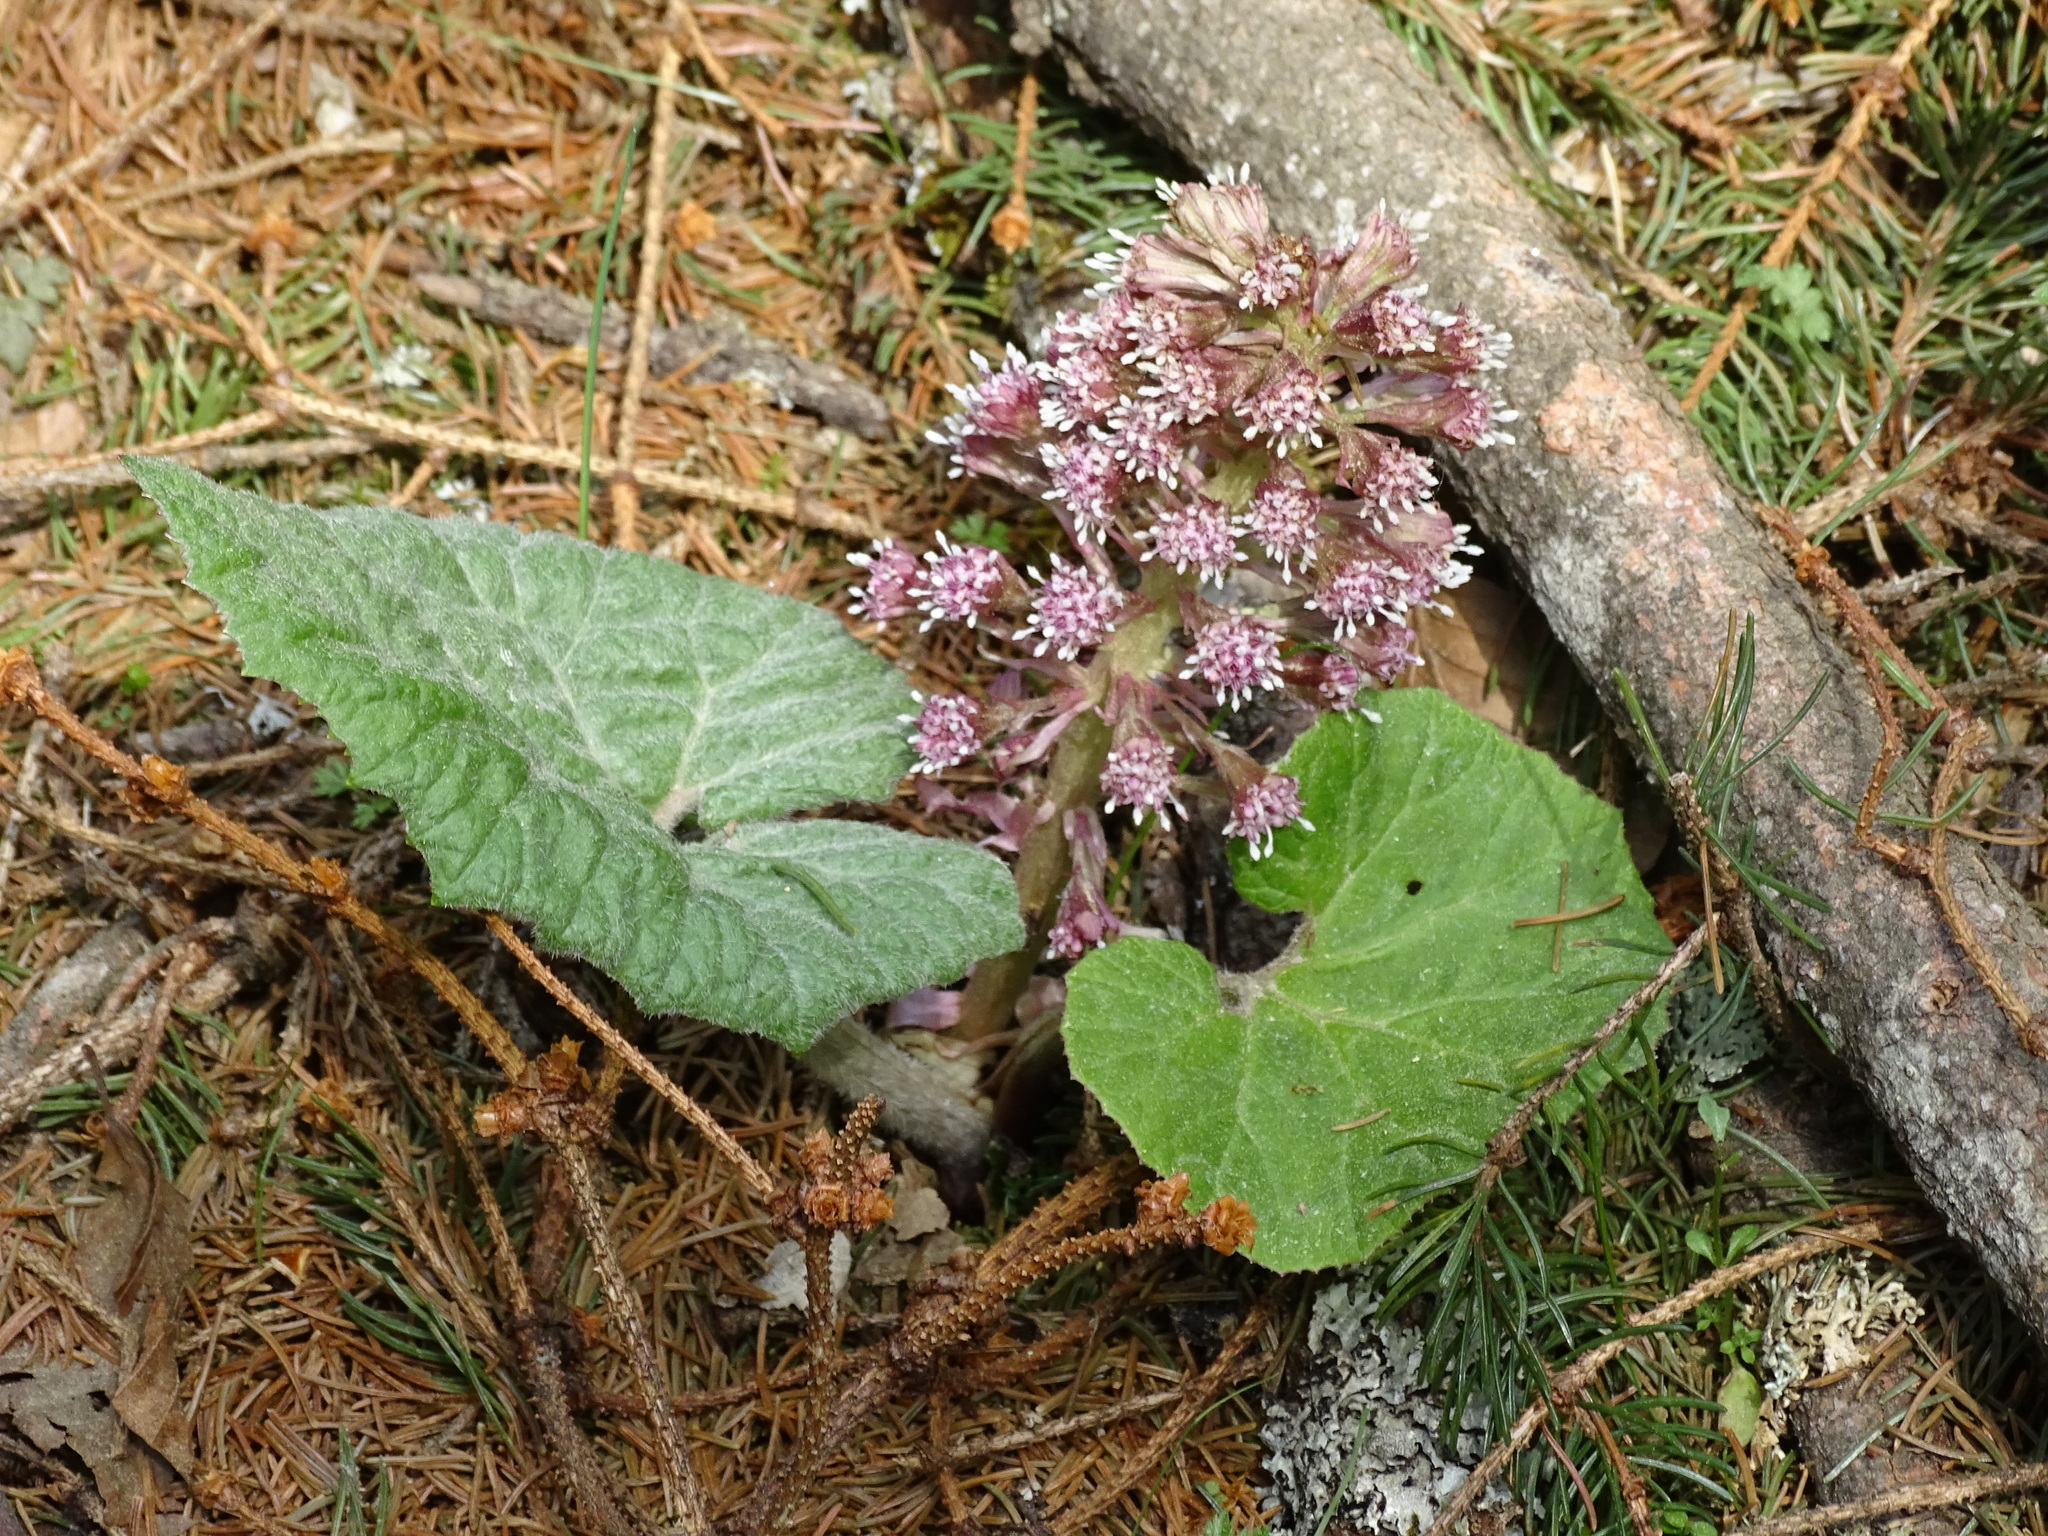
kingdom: Plantae
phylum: Tracheophyta
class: Magnoliopsida
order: Asterales
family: Asteraceae
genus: Petasites
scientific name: Petasites hybridus
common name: Butterbur
